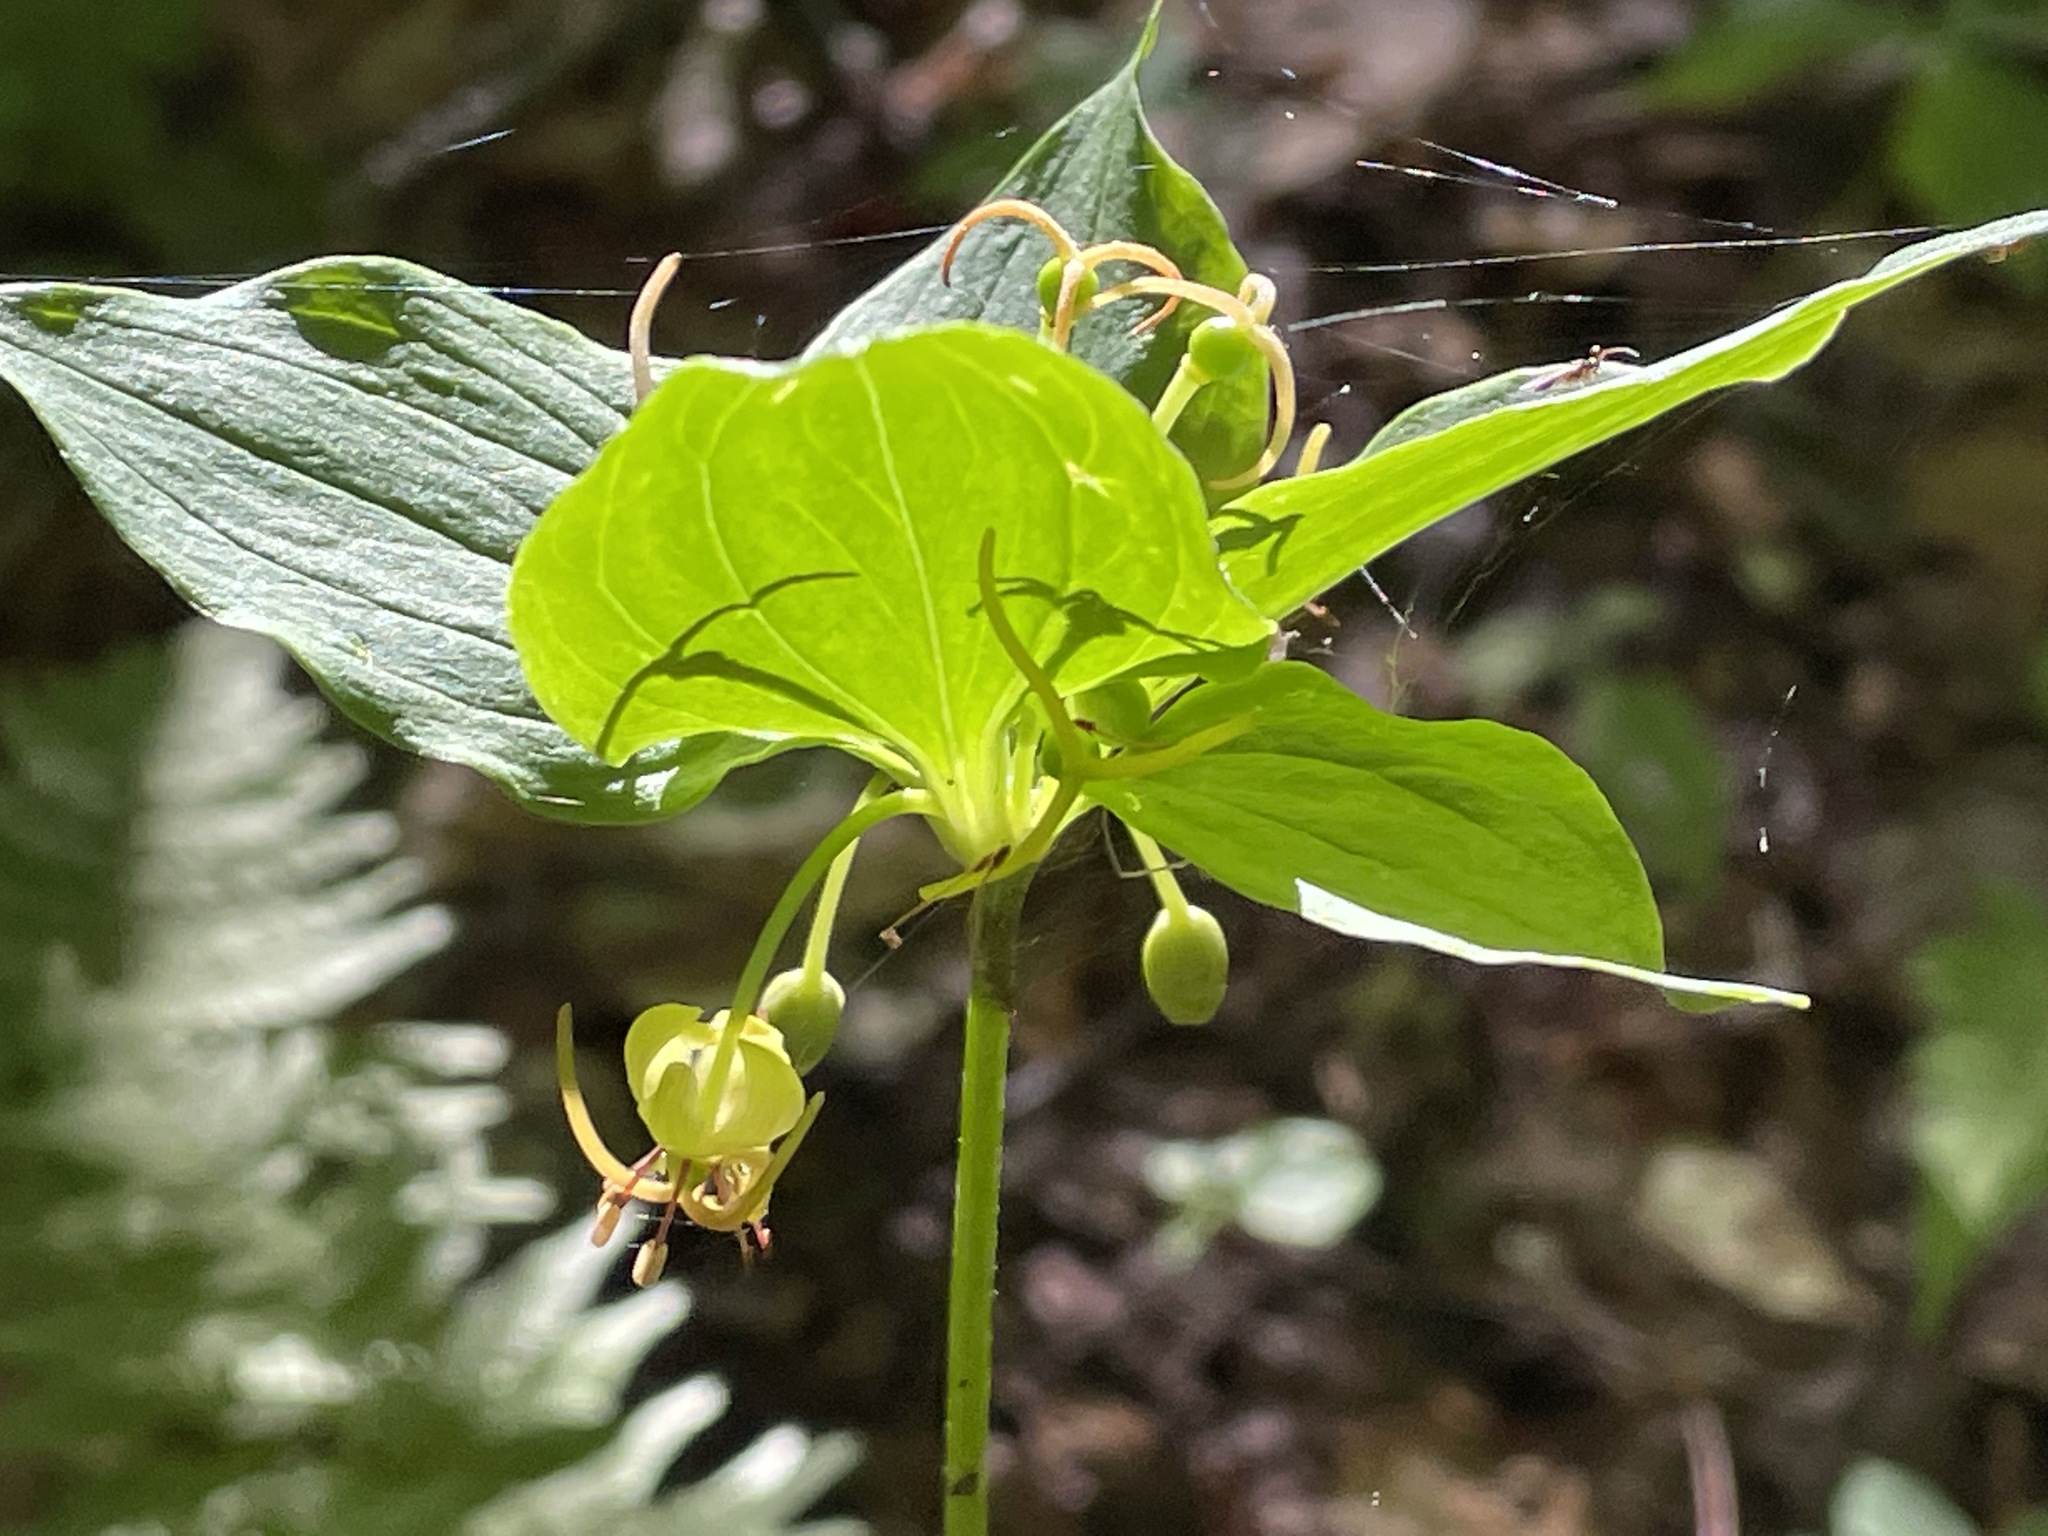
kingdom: Plantae
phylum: Tracheophyta
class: Liliopsida
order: Liliales
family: Liliaceae
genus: Medeola
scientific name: Medeola virginiana
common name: Indian cucumber-root
